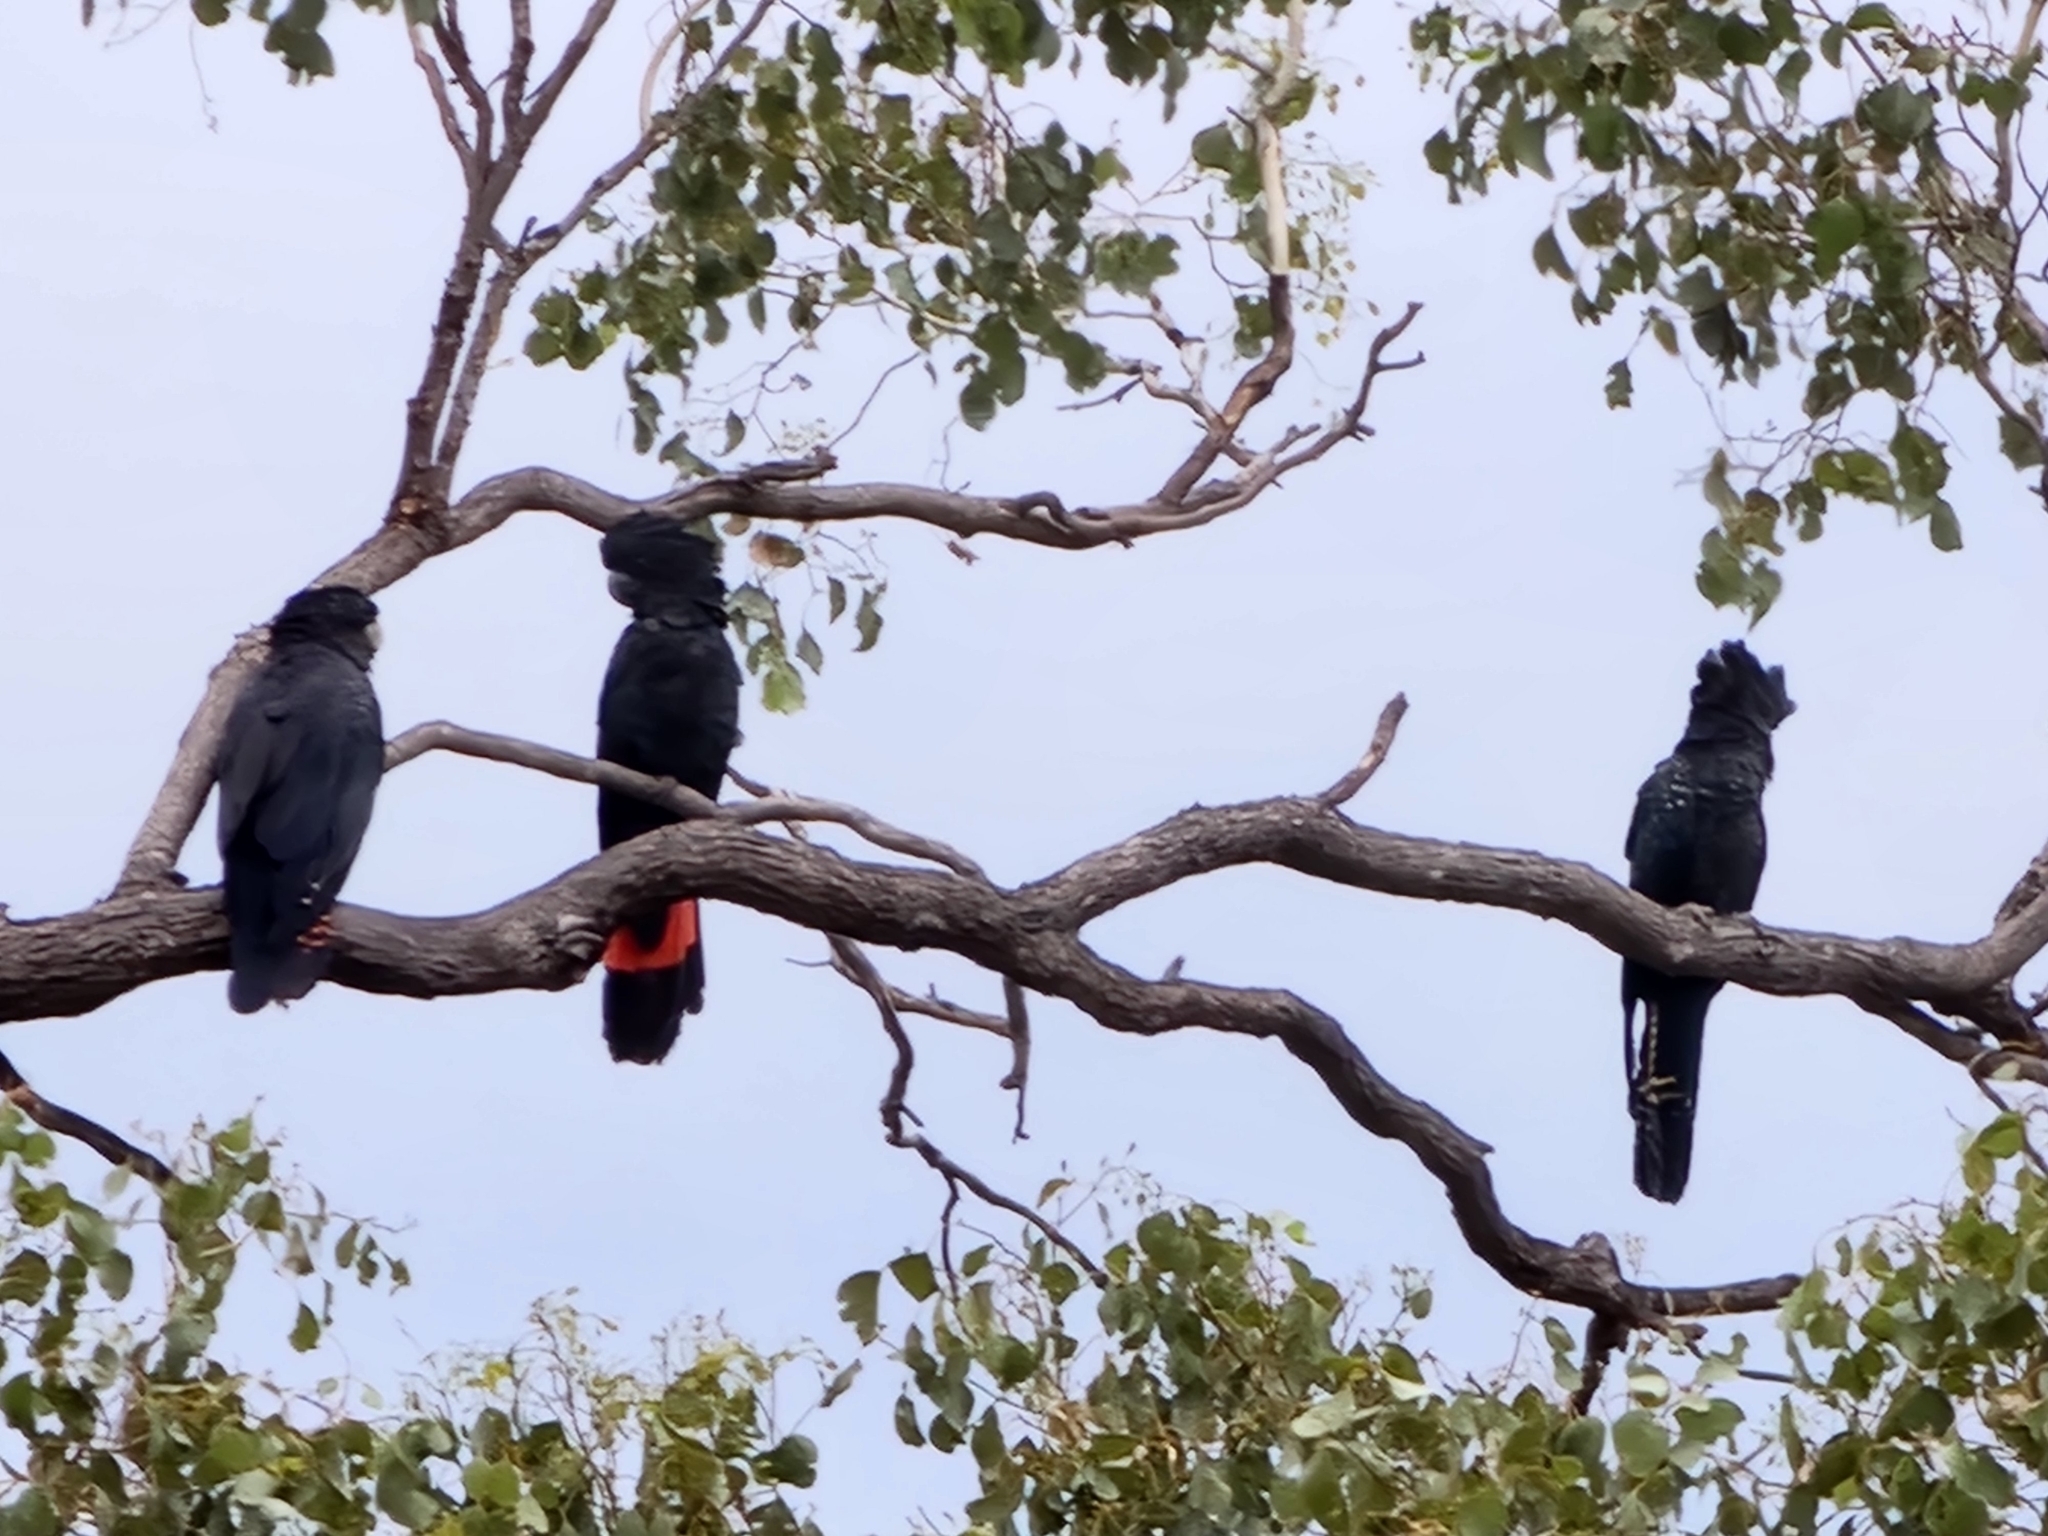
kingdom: Animalia
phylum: Chordata
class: Aves
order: Psittaciformes
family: Psittacidae
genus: Calyptorhynchus
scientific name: Calyptorhynchus banksii
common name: Red-tailed black cockatoo
